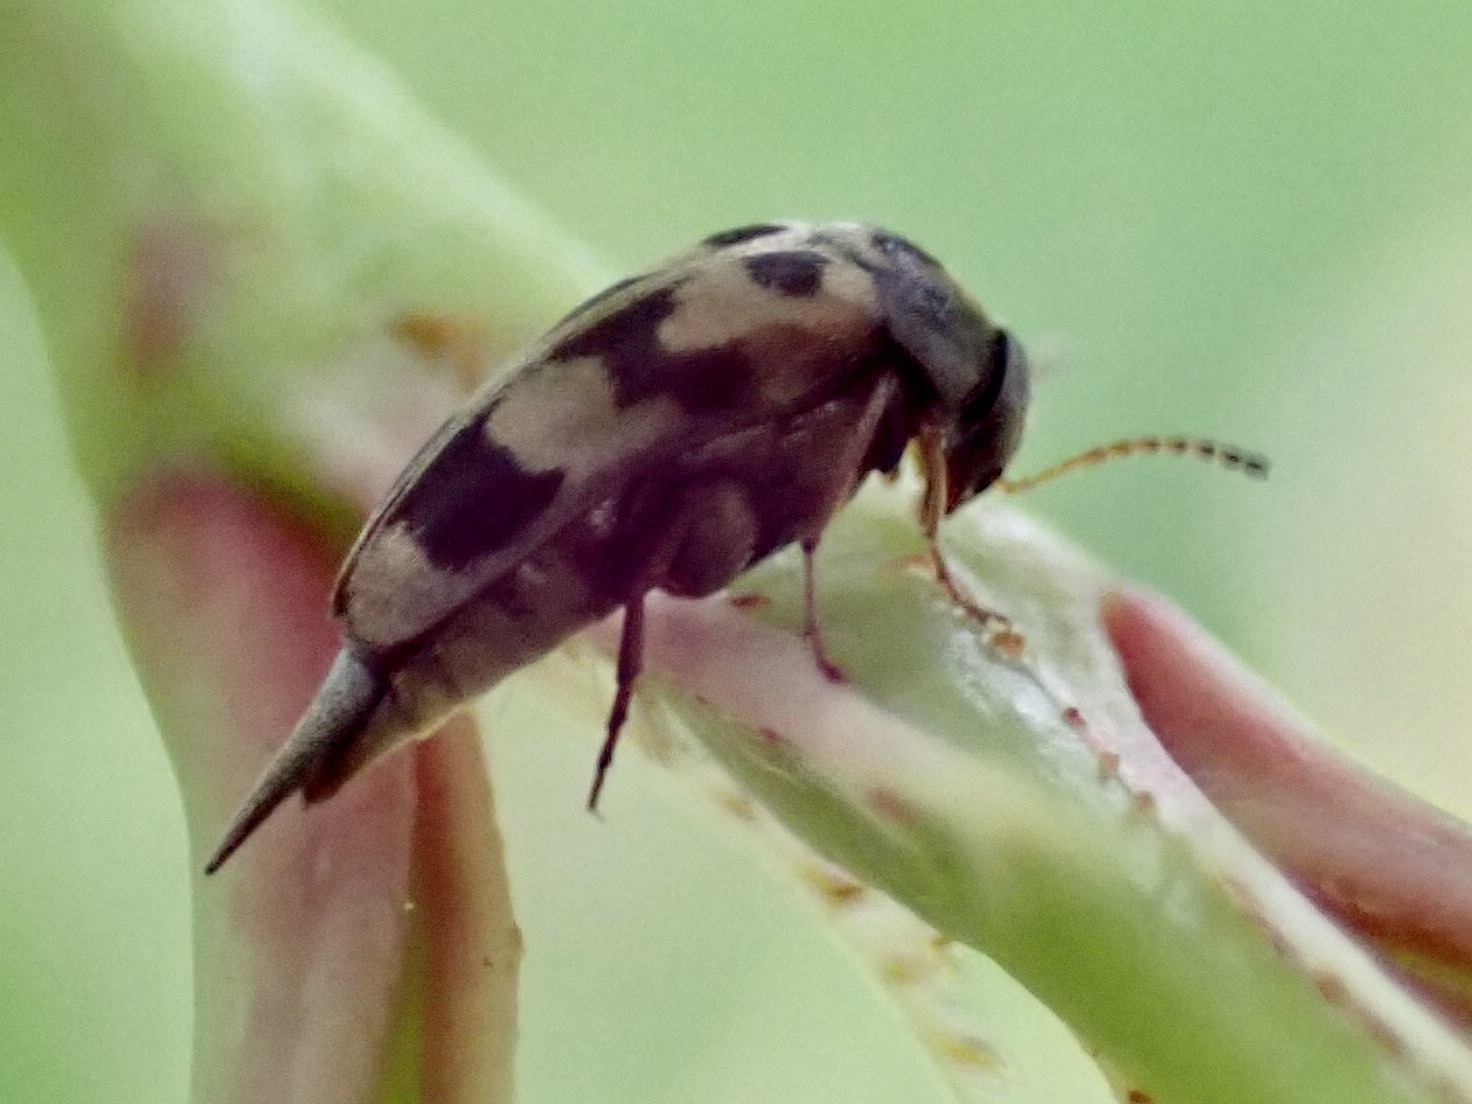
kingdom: Animalia
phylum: Arthropoda
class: Insecta
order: Coleoptera
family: Mordellidae
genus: Falsomordellistena
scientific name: Falsomordellistena pubescens
